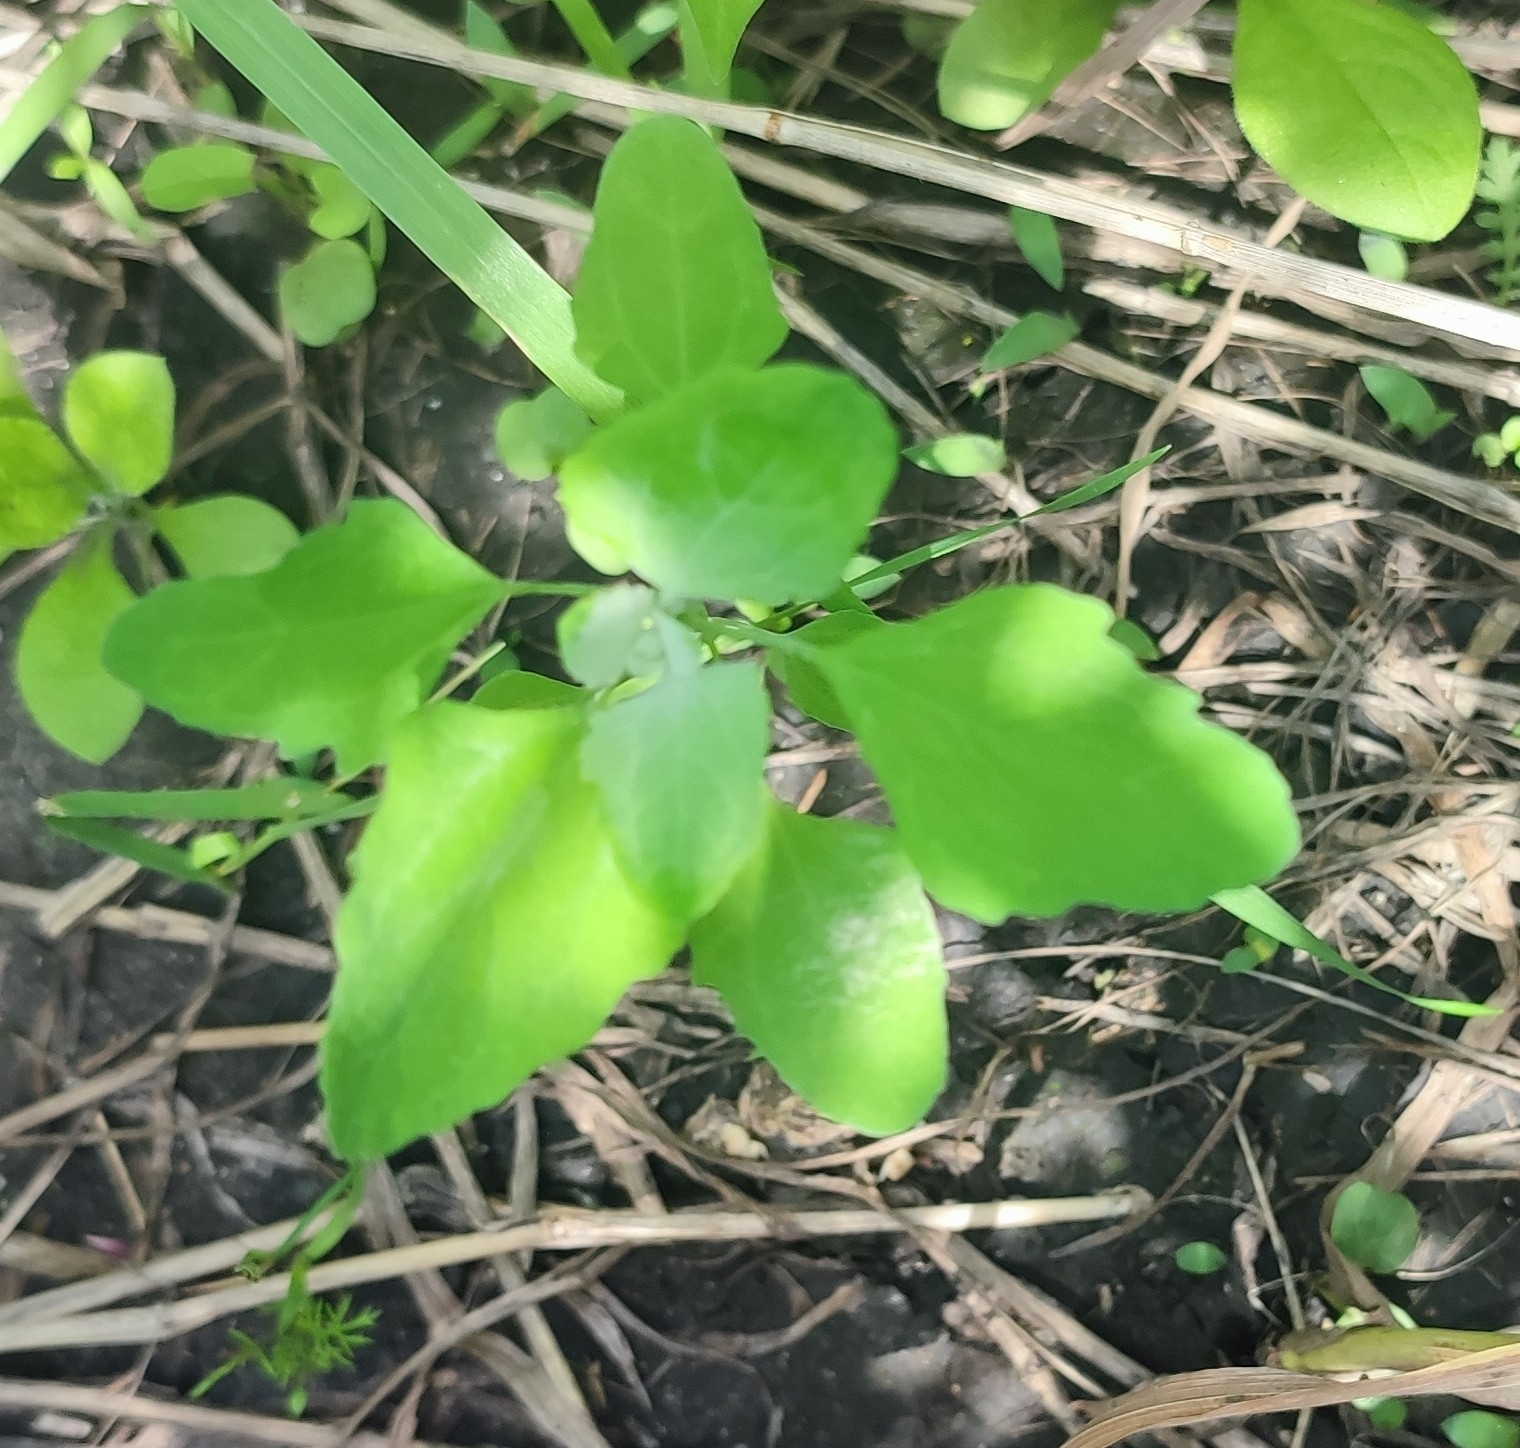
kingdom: Plantae
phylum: Tracheophyta
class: Magnoliopsida
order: Caryophyllales
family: Amaranthaceae
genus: Chenopodium
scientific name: Chenopodium album
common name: Fat-hen
